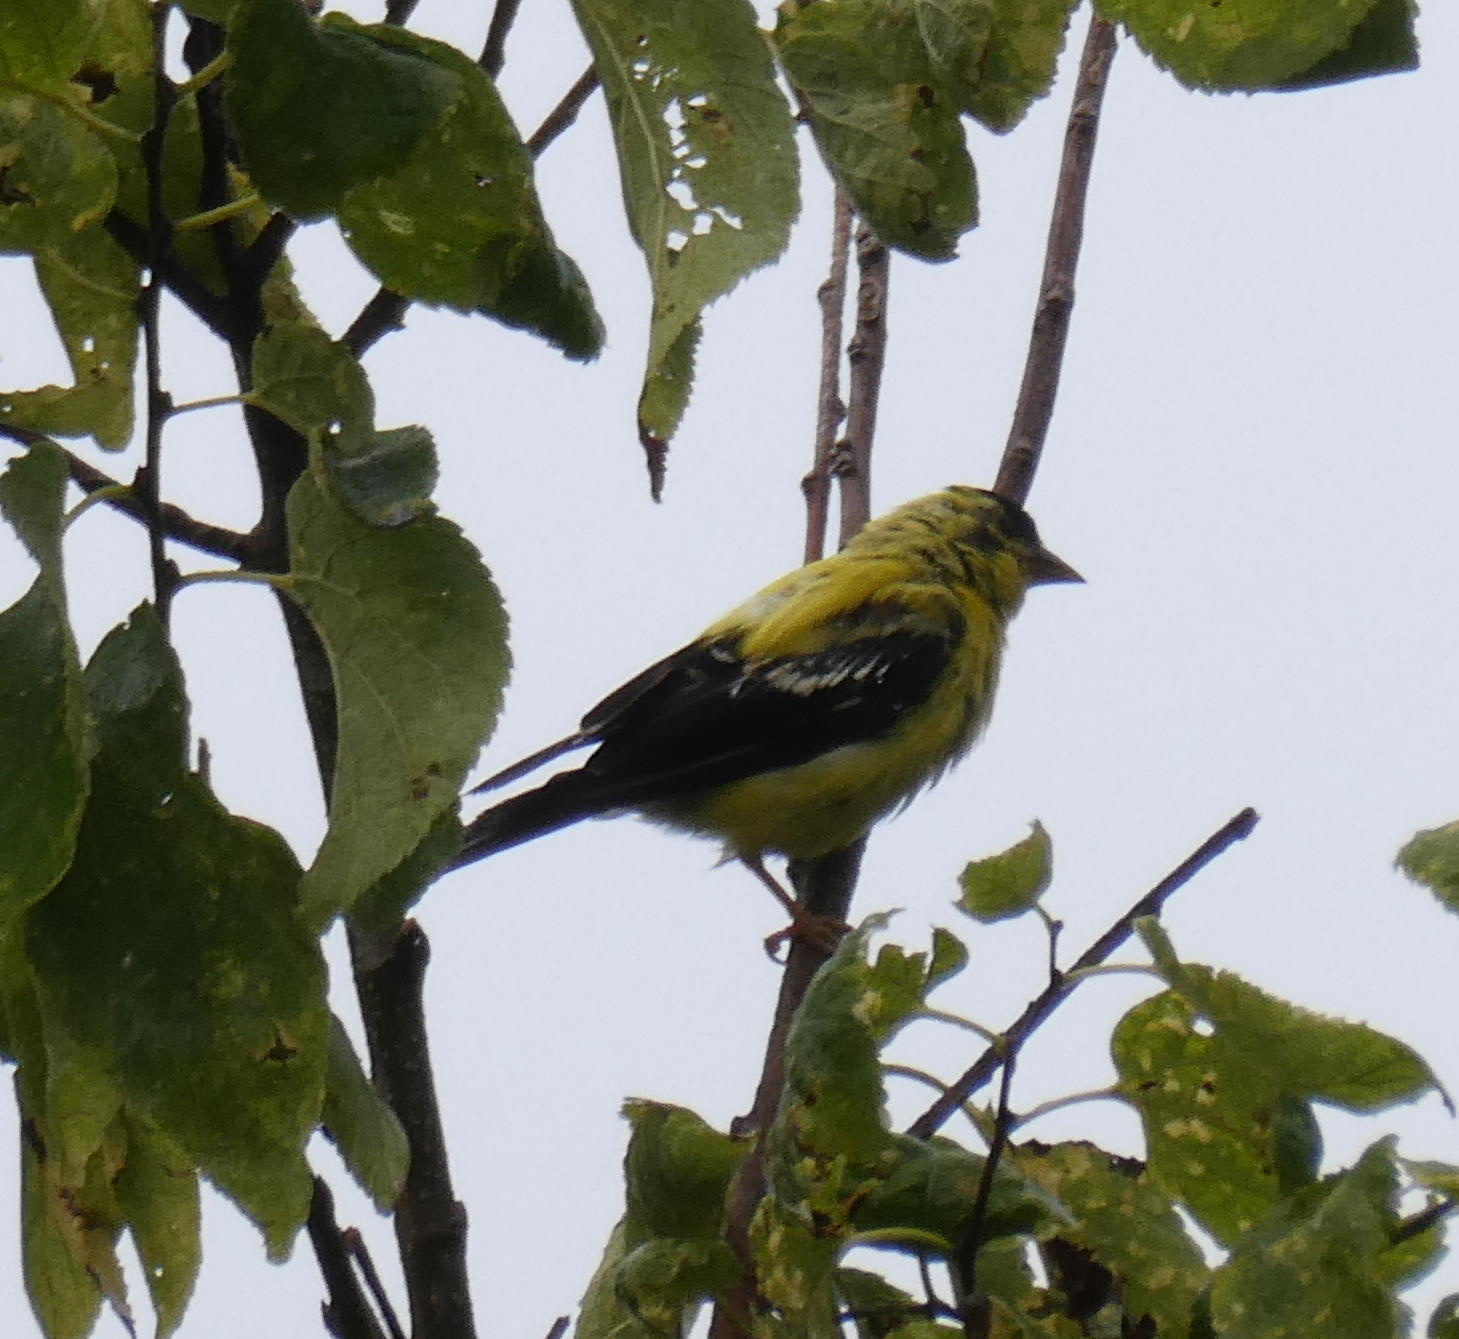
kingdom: Animalia
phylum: Chordata
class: Aves
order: Passeriformes
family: Fringillidae
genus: Spinus
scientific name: Spinus tristis
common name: American goldfinch
